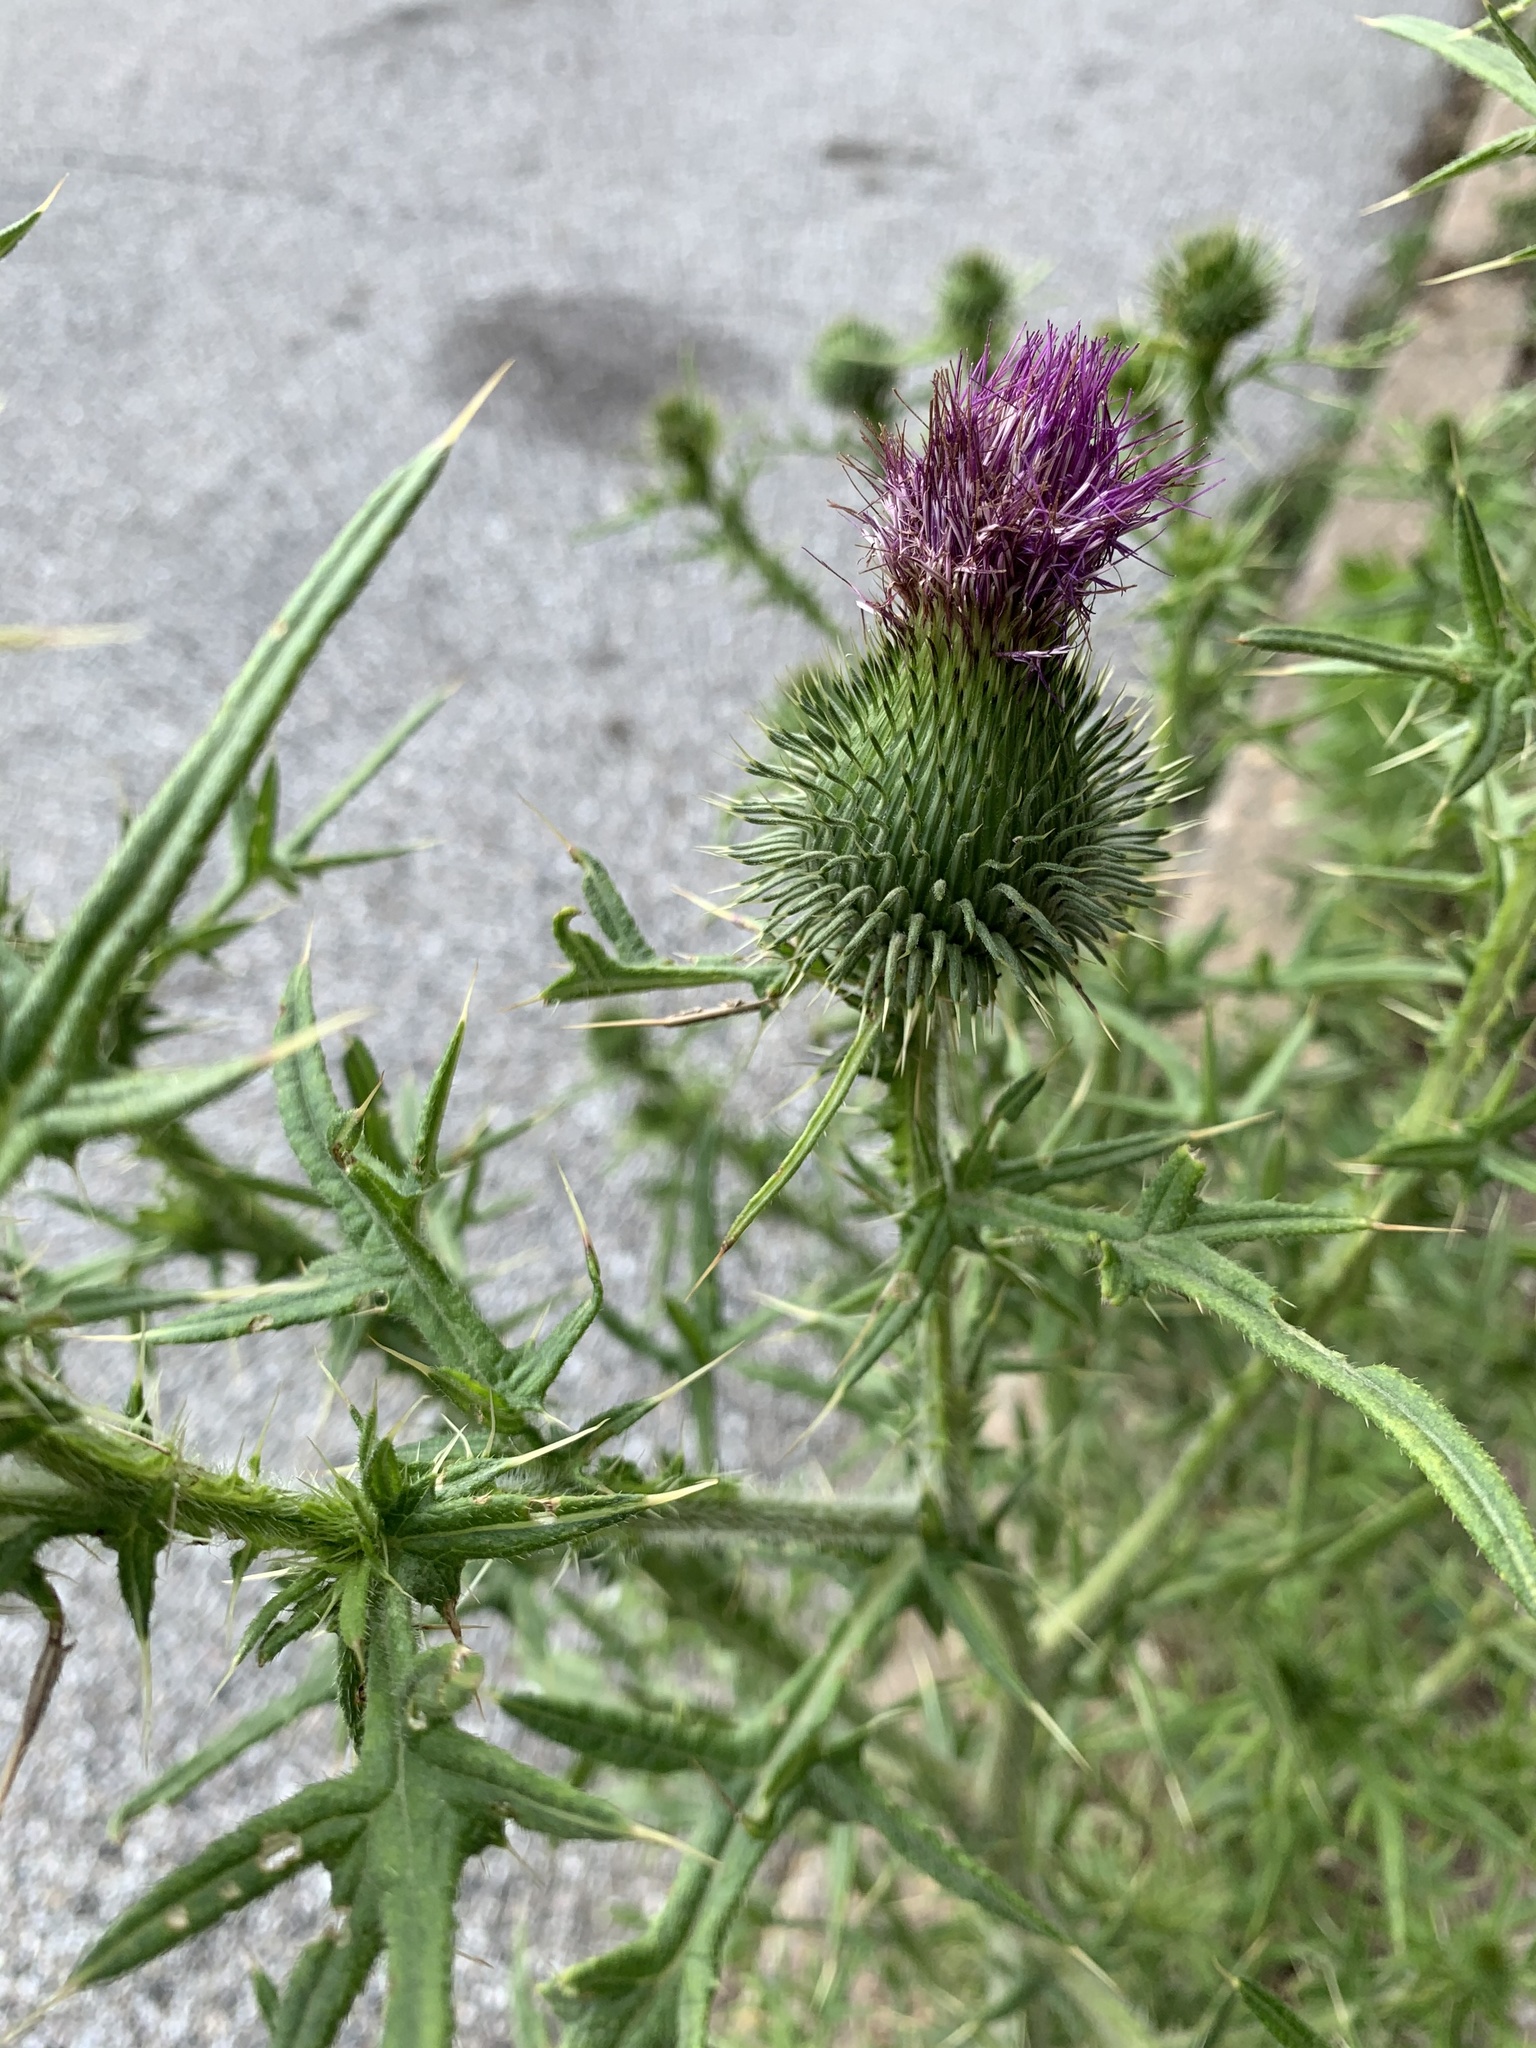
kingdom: Plantae
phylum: Tracheophyta
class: Magnoliopsida
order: Asterales
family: Asteraceae
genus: Cirsium
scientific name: Cirsium vulgare
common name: Bull thistle
